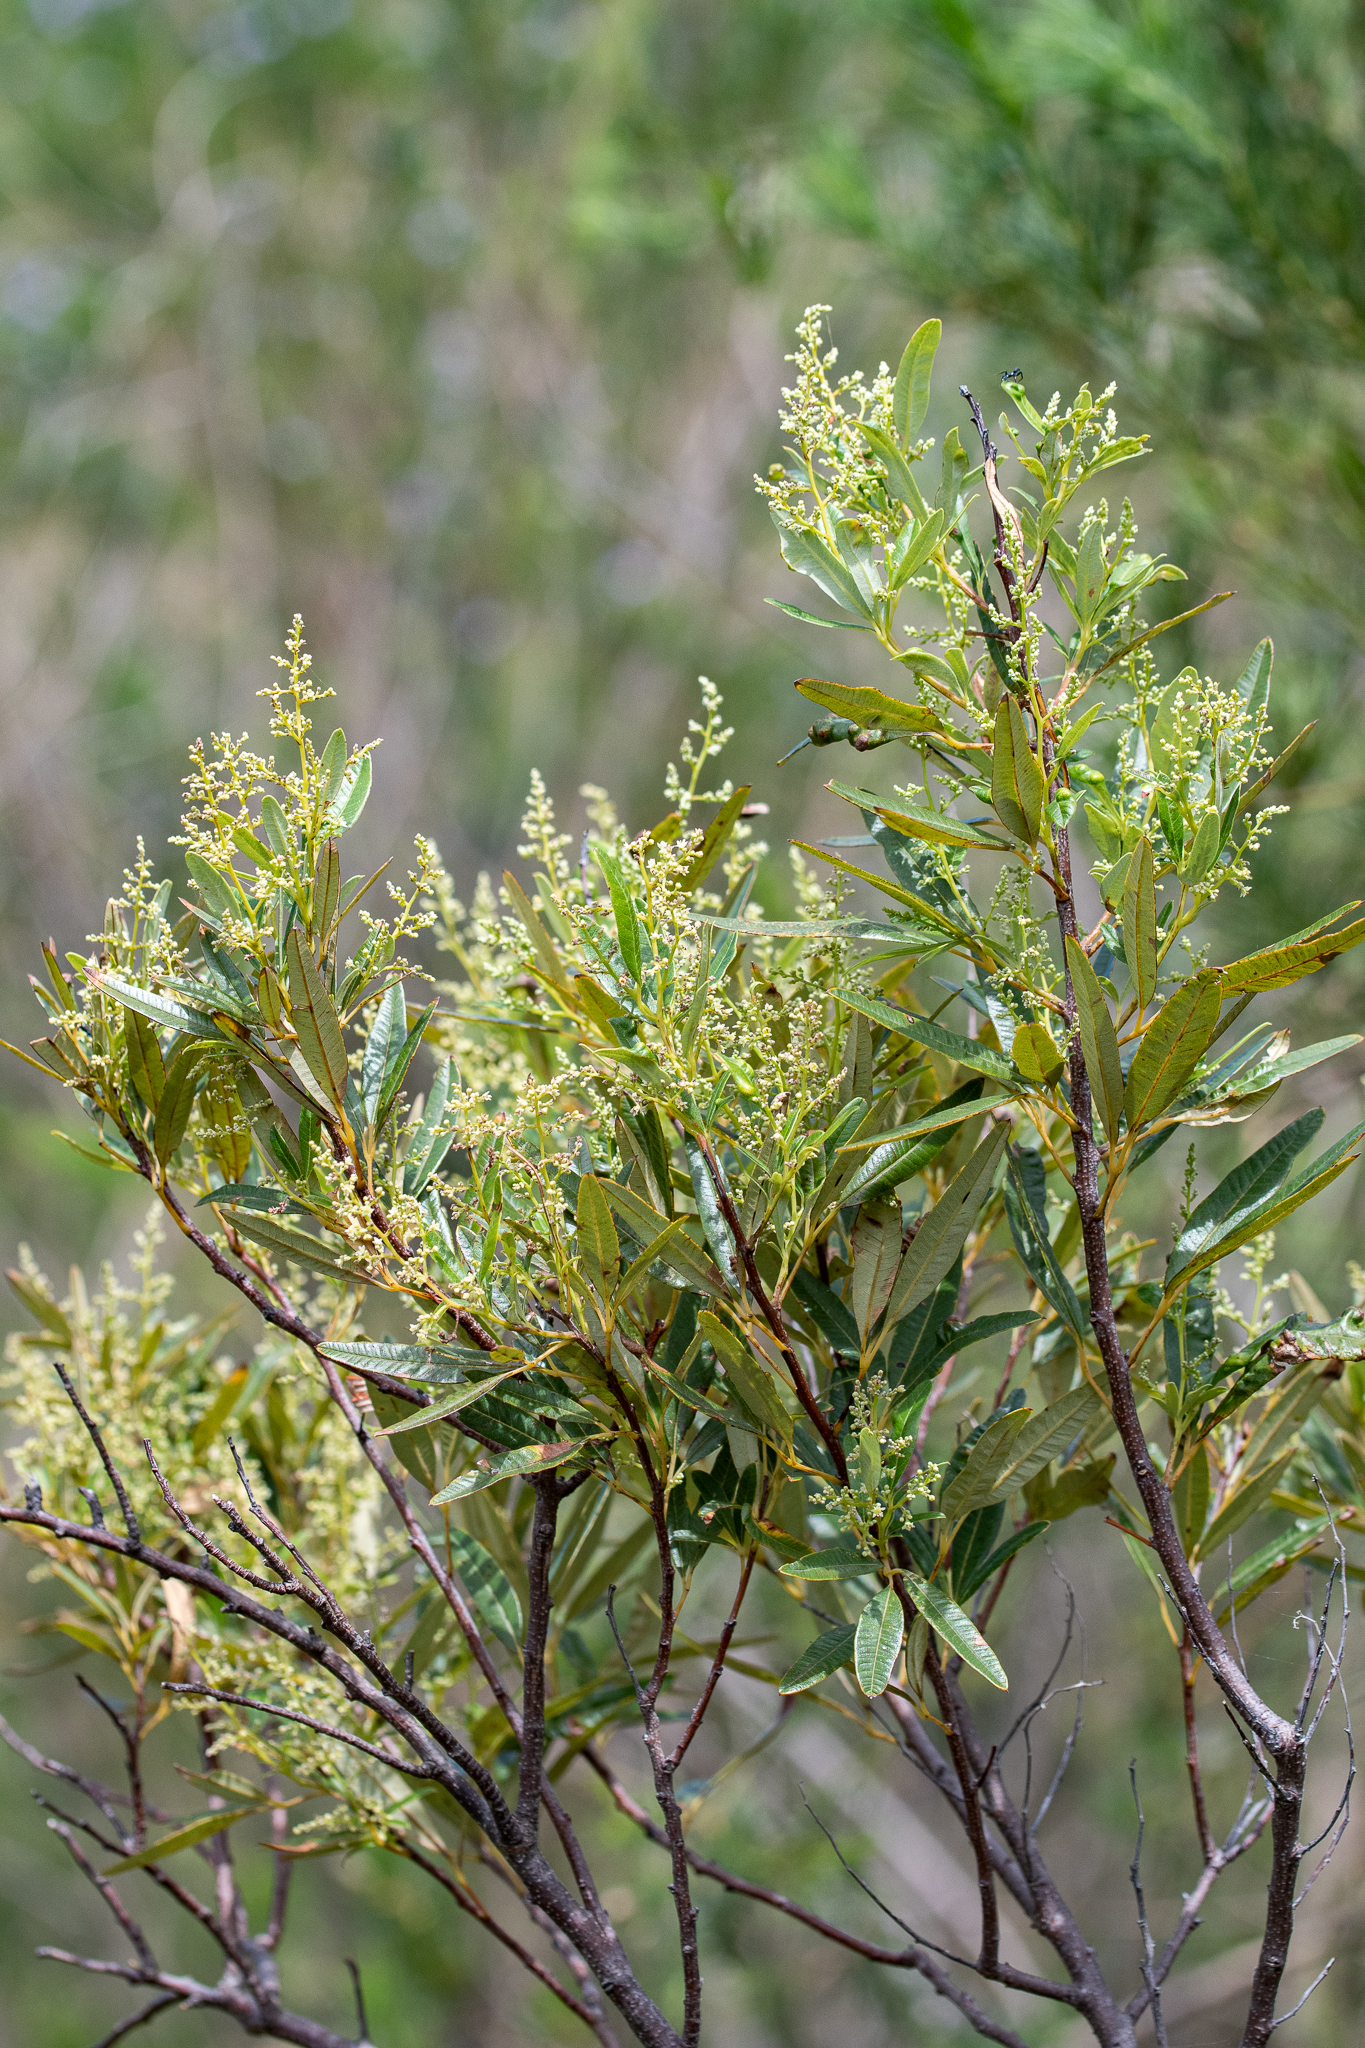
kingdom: Plantae
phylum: Tracheophyta
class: Magnoliopsida
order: Sapindales
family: Anacardiaceae
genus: Searsia
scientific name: Searsia angustifolia
